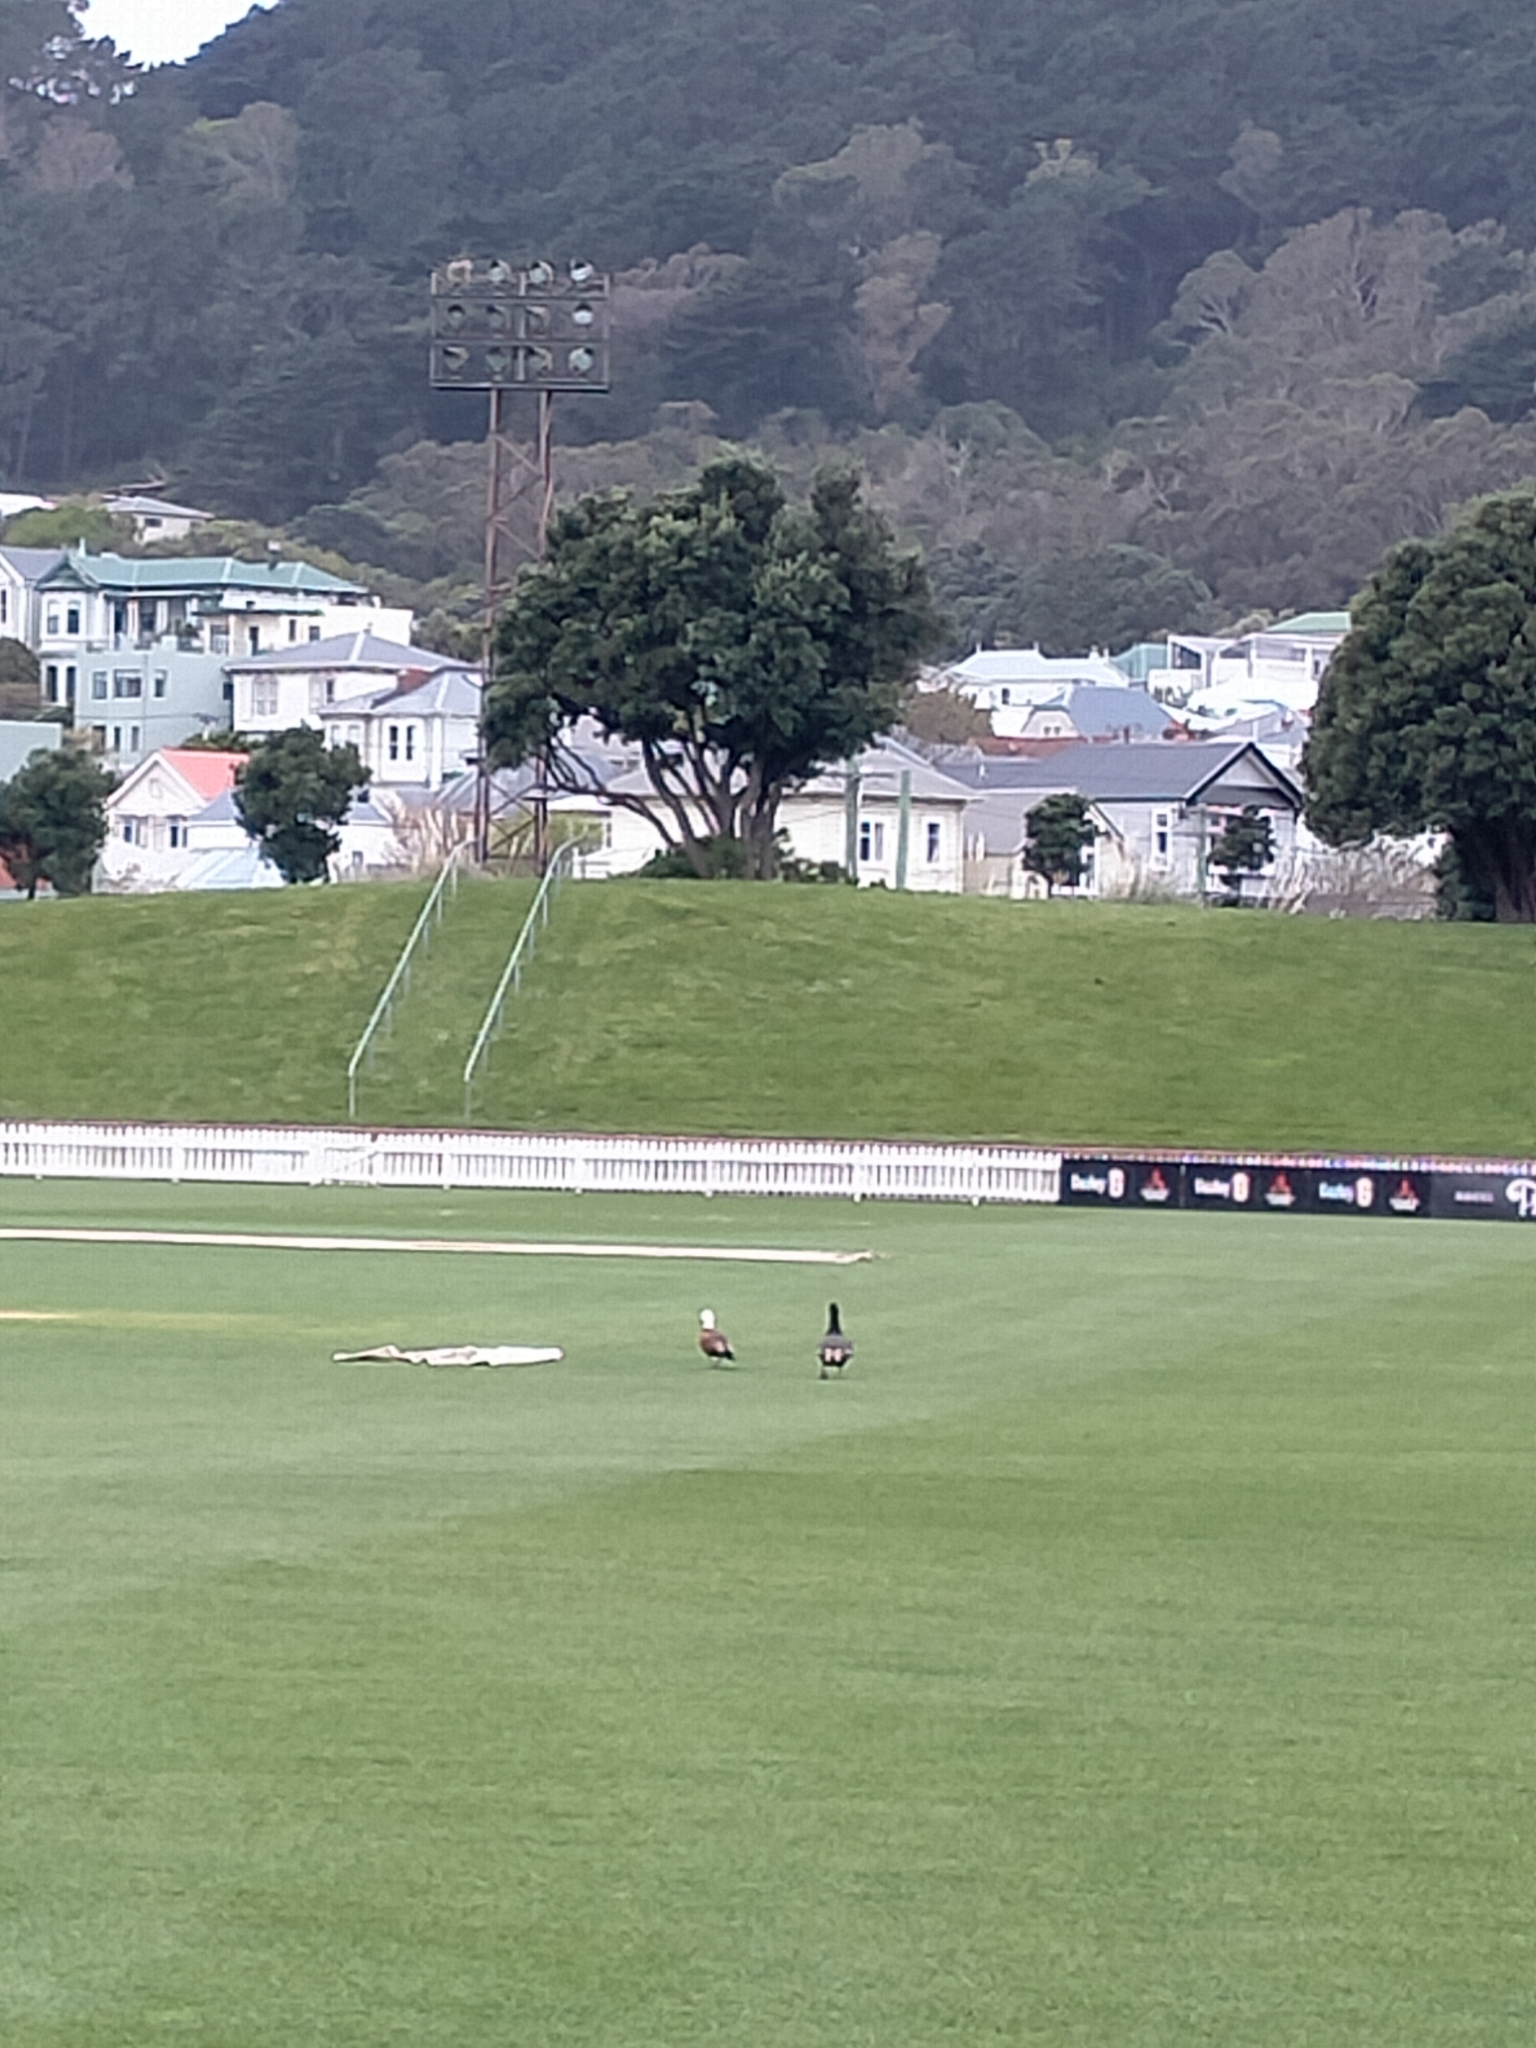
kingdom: Animalia
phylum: Chordata
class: Aves
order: Anseriformes
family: Anatidae
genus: Tadorna
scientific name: Tadorna variegata
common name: Paradise shelduck
